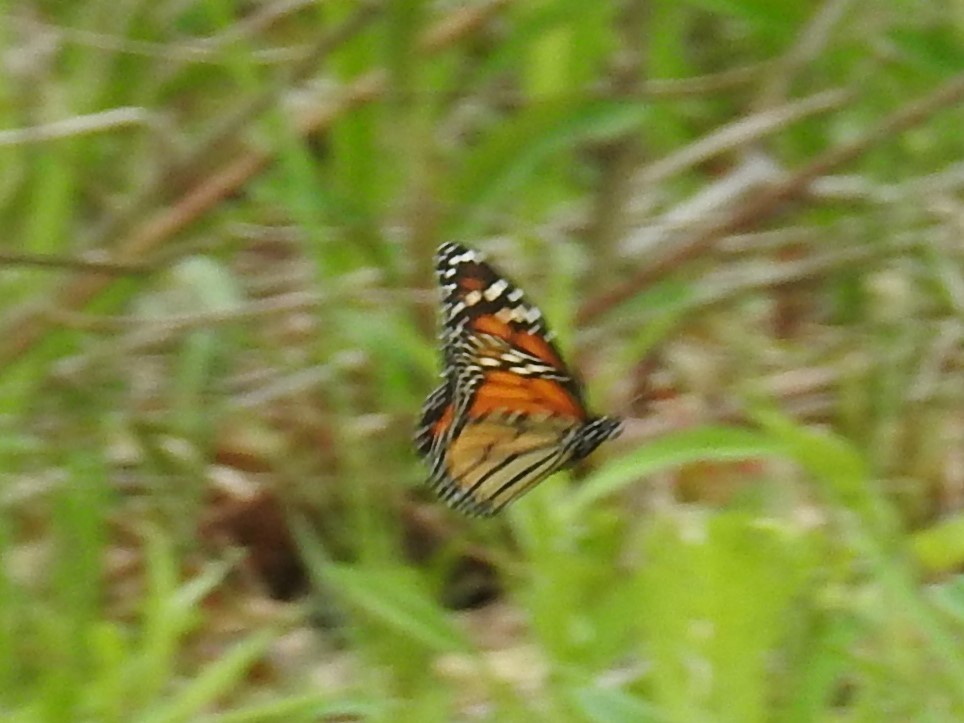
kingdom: Animalia
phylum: Arthropoda
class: Insecta
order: Lepidoptera
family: Nymphalidae
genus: Danaus
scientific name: Danaus plexippus
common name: Monarch
